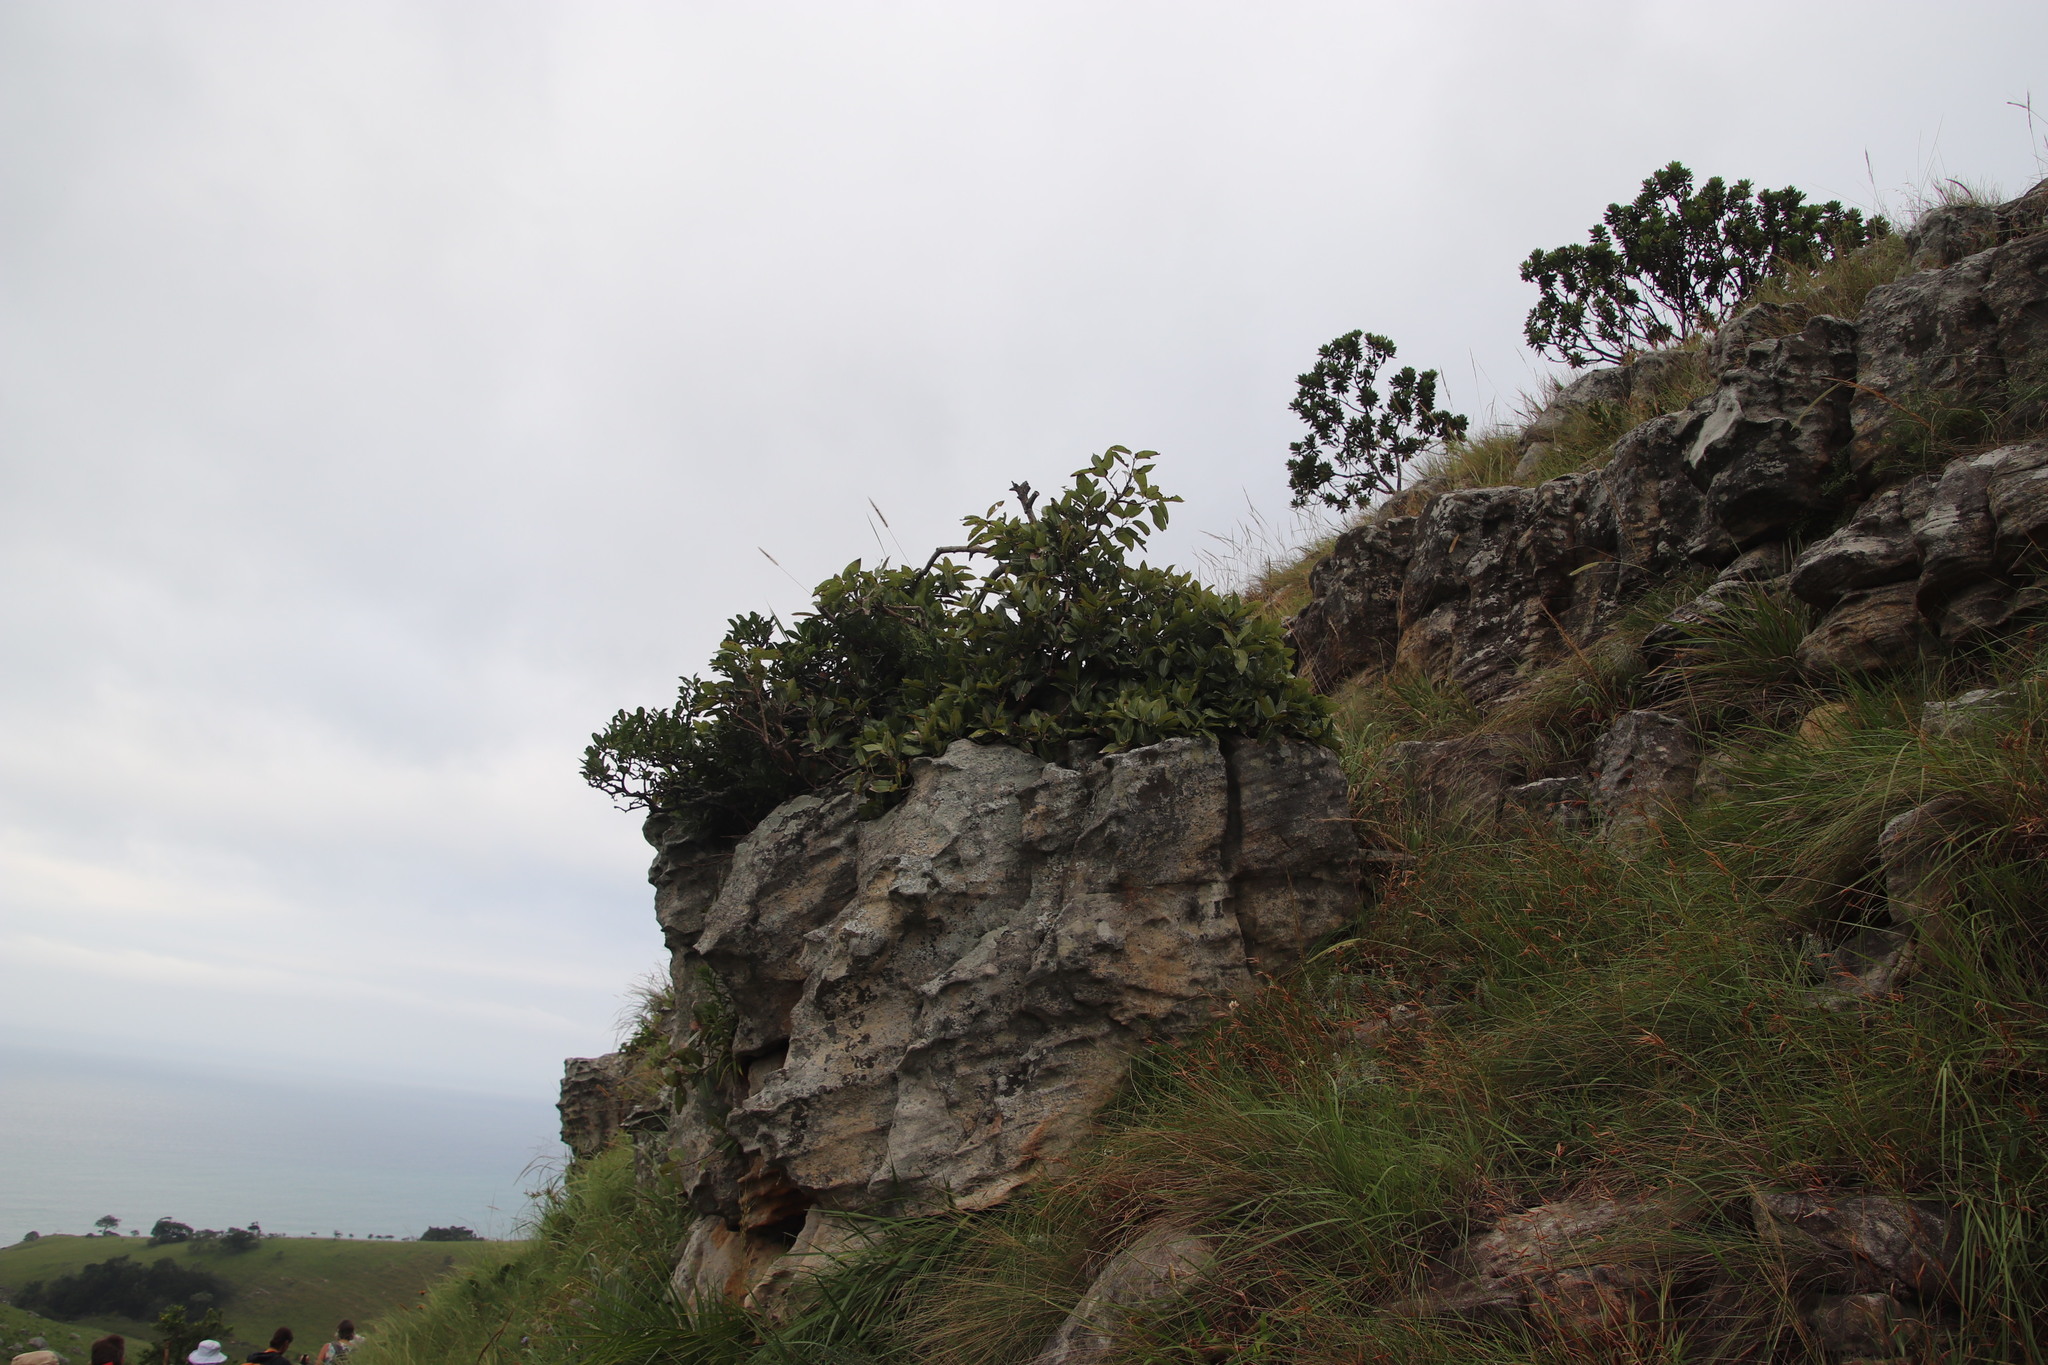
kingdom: Plantae
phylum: Tracheophyta
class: Magnoliopsida
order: Rosales
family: Moraceae
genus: Ficus
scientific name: Ficus ingens
